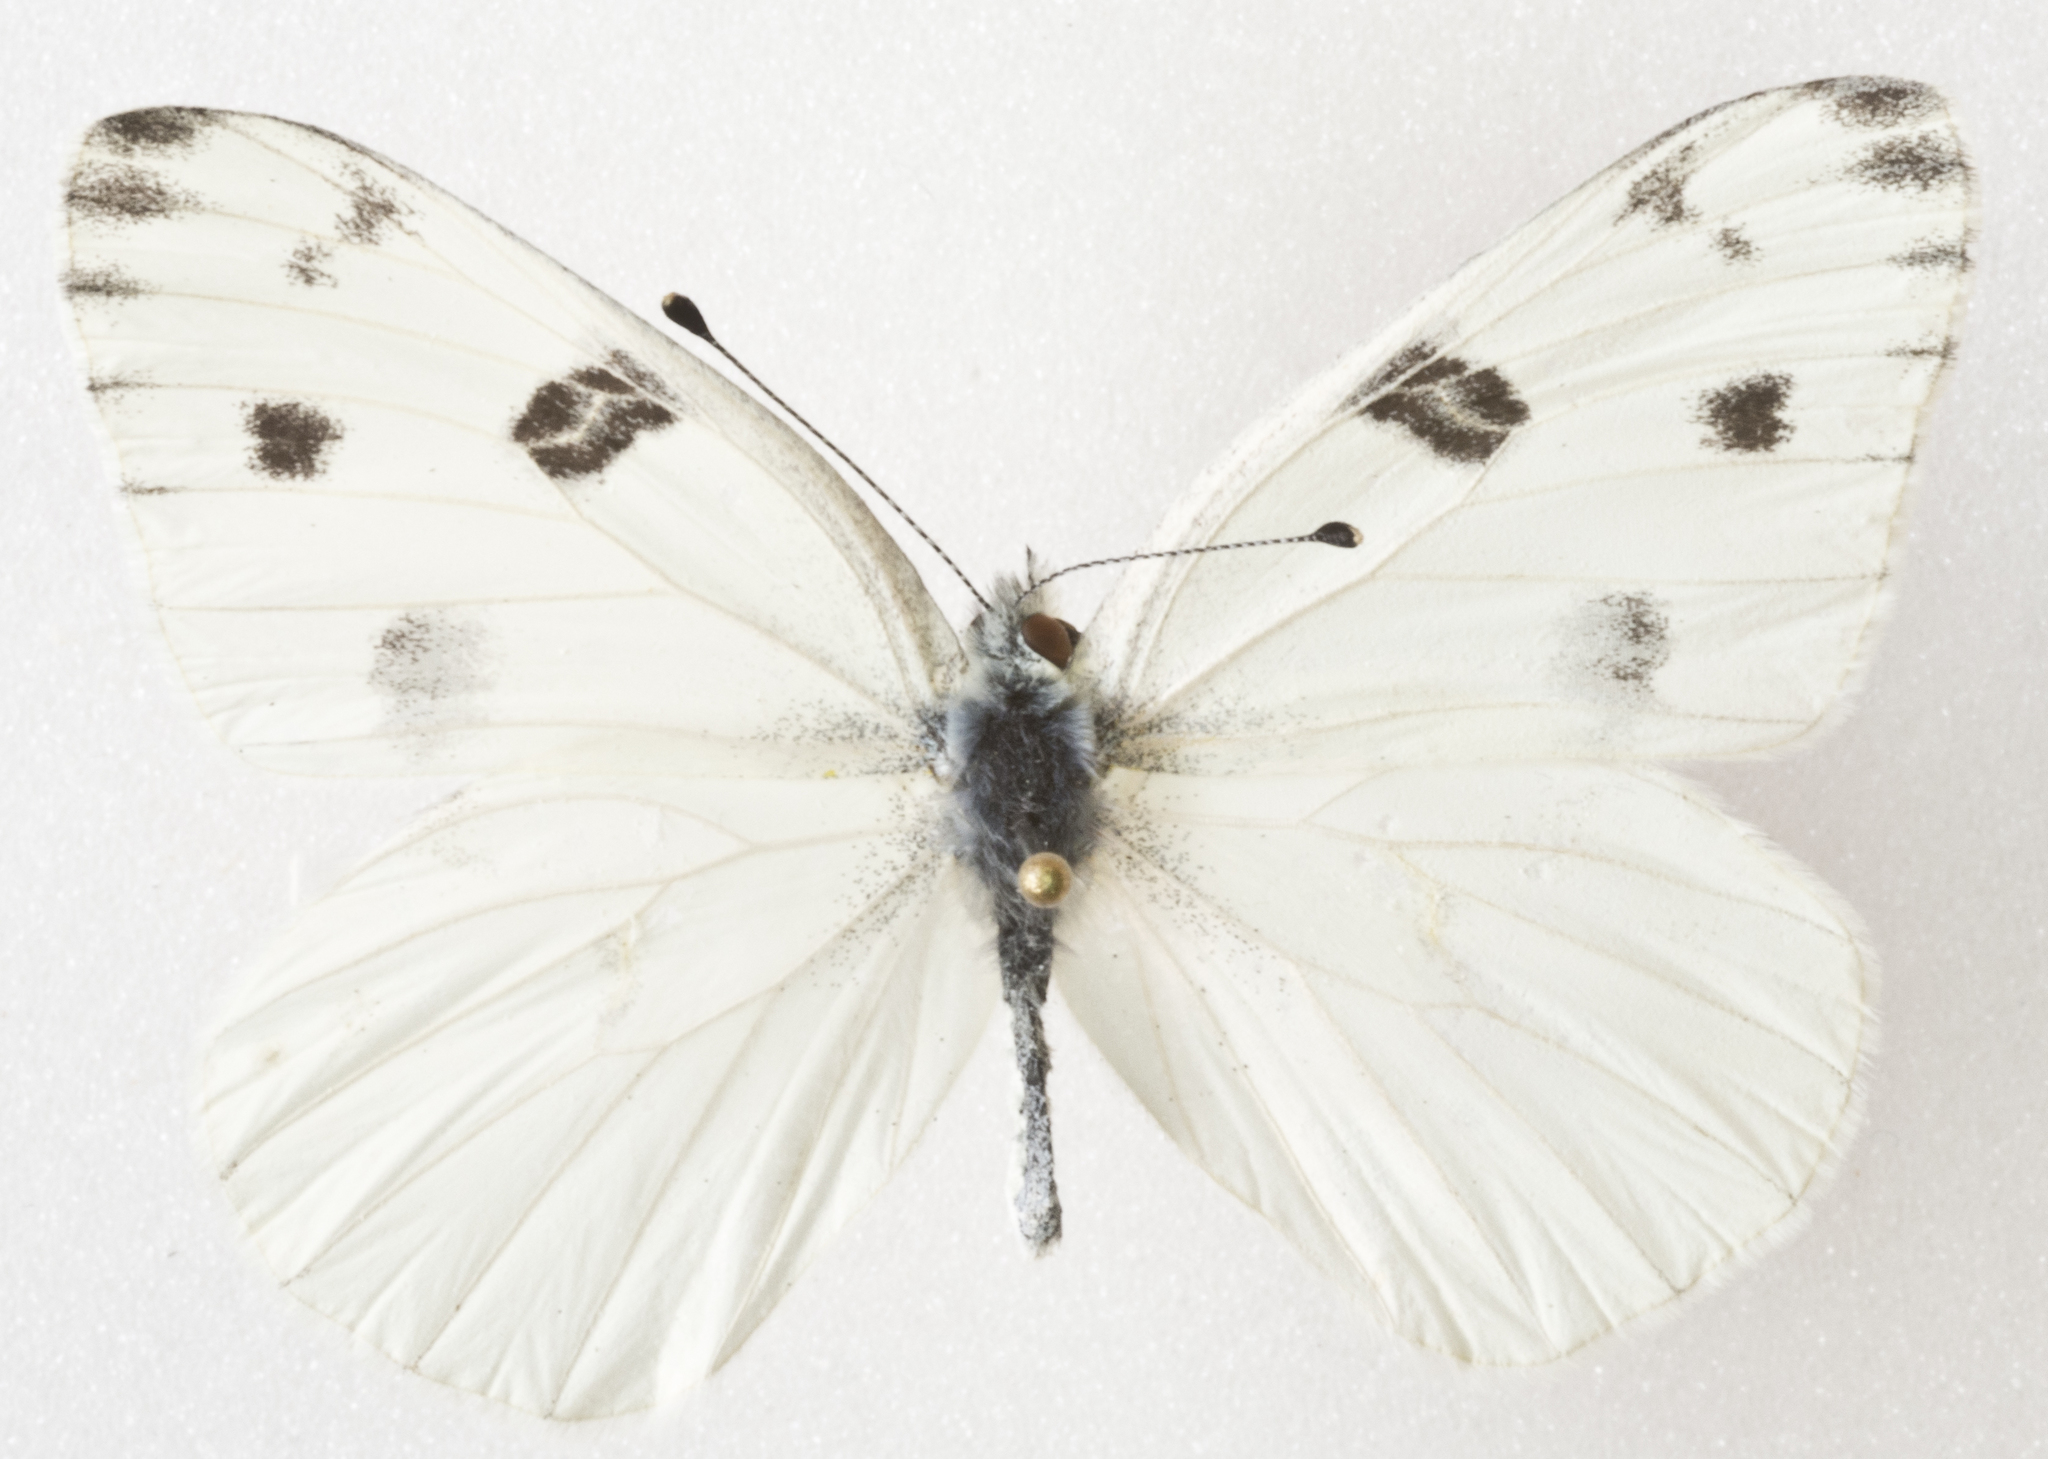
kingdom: Animalia
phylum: Arthropoda
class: Insecta
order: Lepidoptera
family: Pieridae
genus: Pontia
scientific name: Pontia protodice
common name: Checkered white
